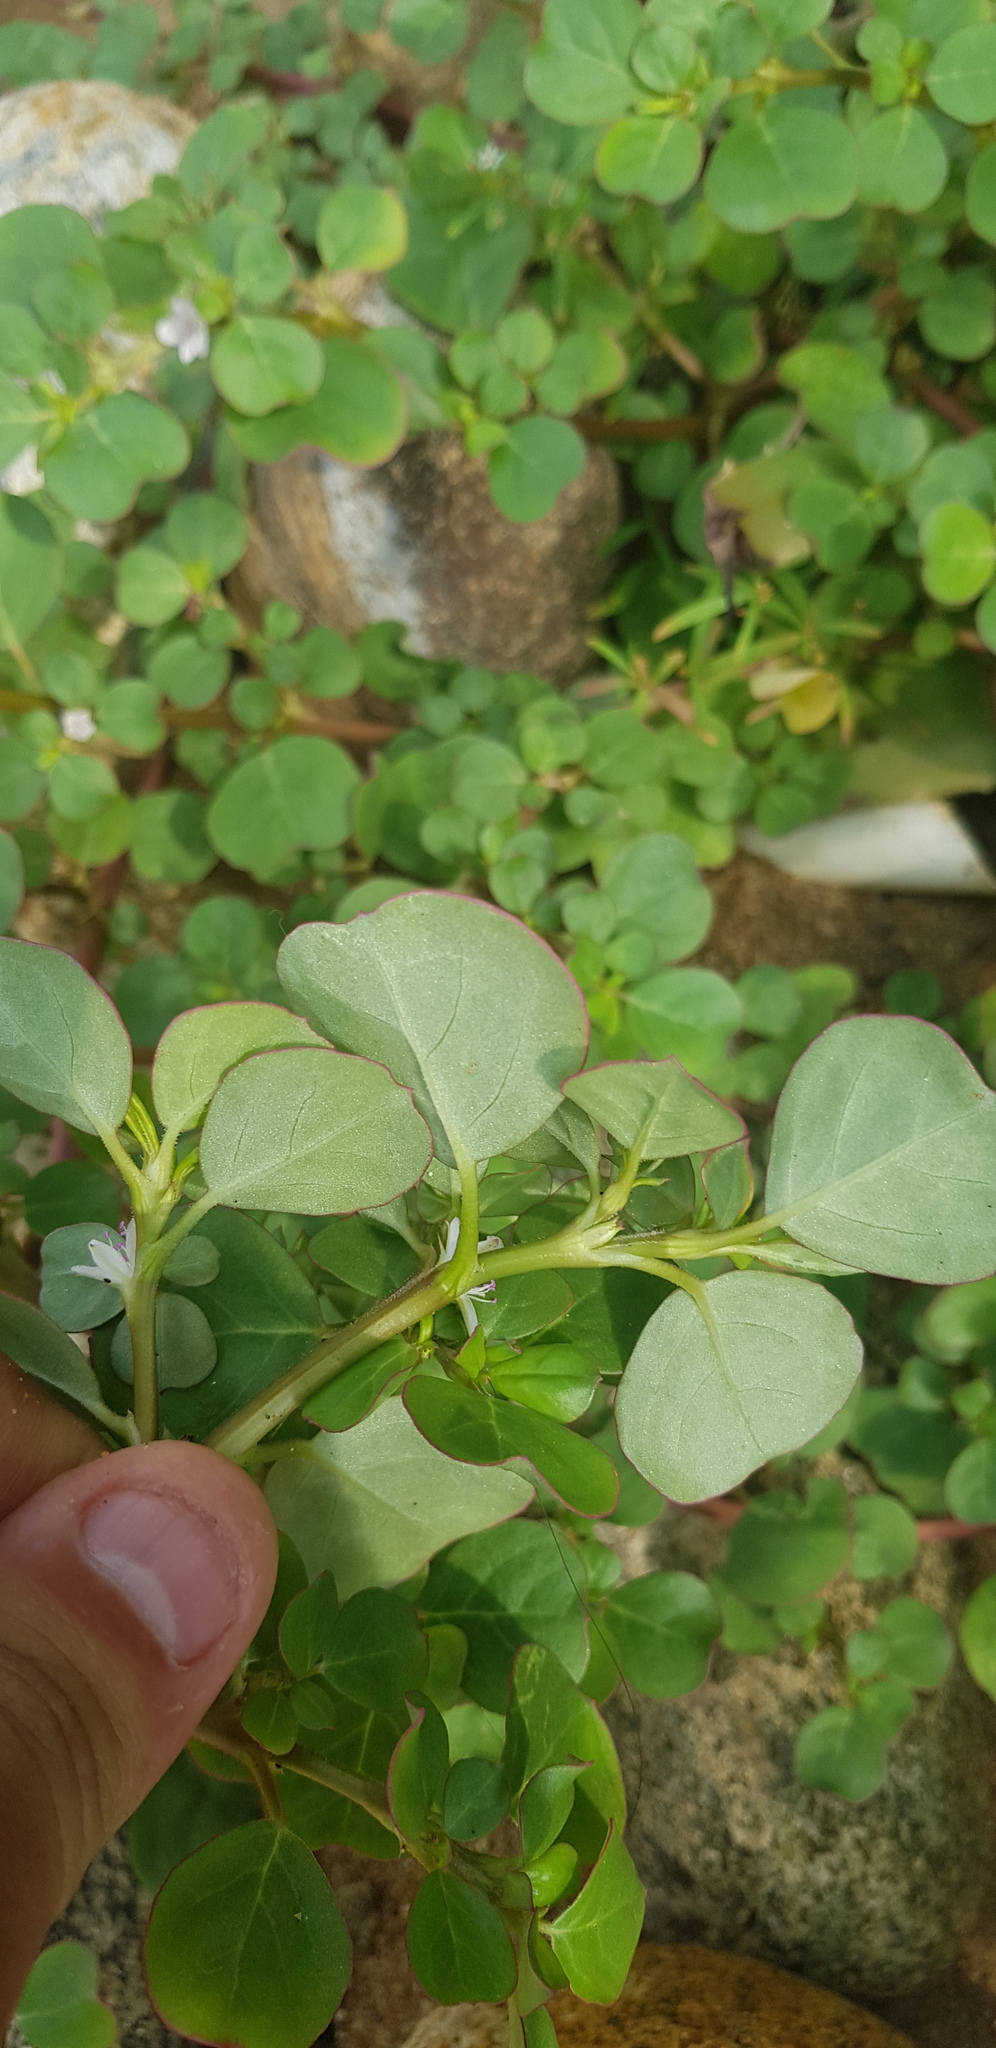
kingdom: Plantae
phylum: Tracheophyta
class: Magnoliopsida
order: Caryophyllales
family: Aizoaceae
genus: Trianthema
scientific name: Trianthema portulacastrum
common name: Desert horsepurslane
